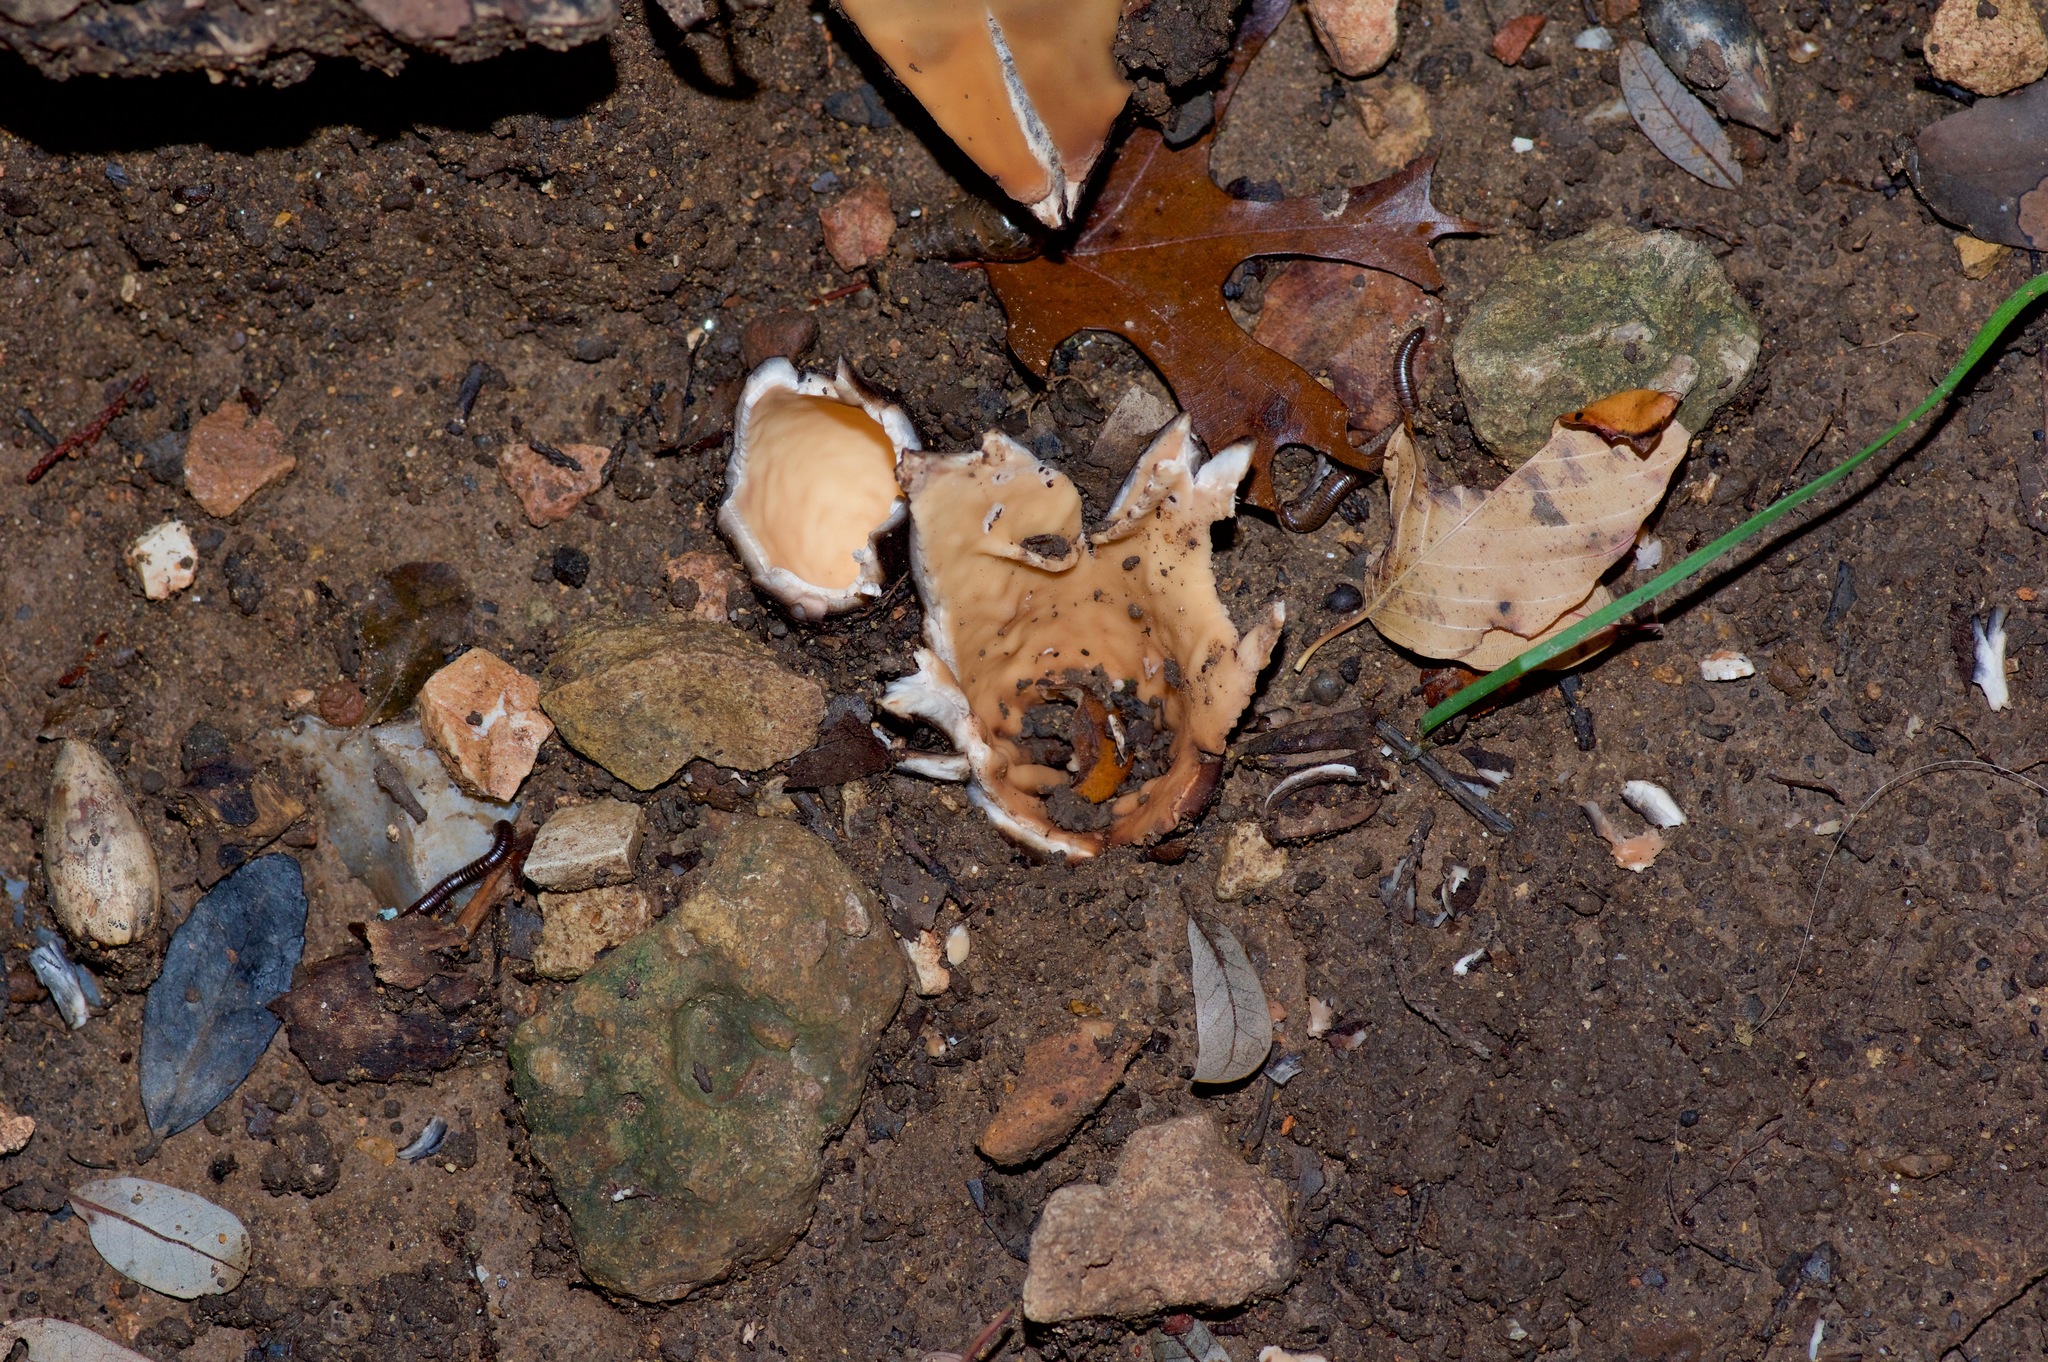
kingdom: Fungi
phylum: Ascomycota
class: Pezizomycetes
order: Pezizales
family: Chorioactidaceae
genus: Chorioactis
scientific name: Chorioactis geaster
